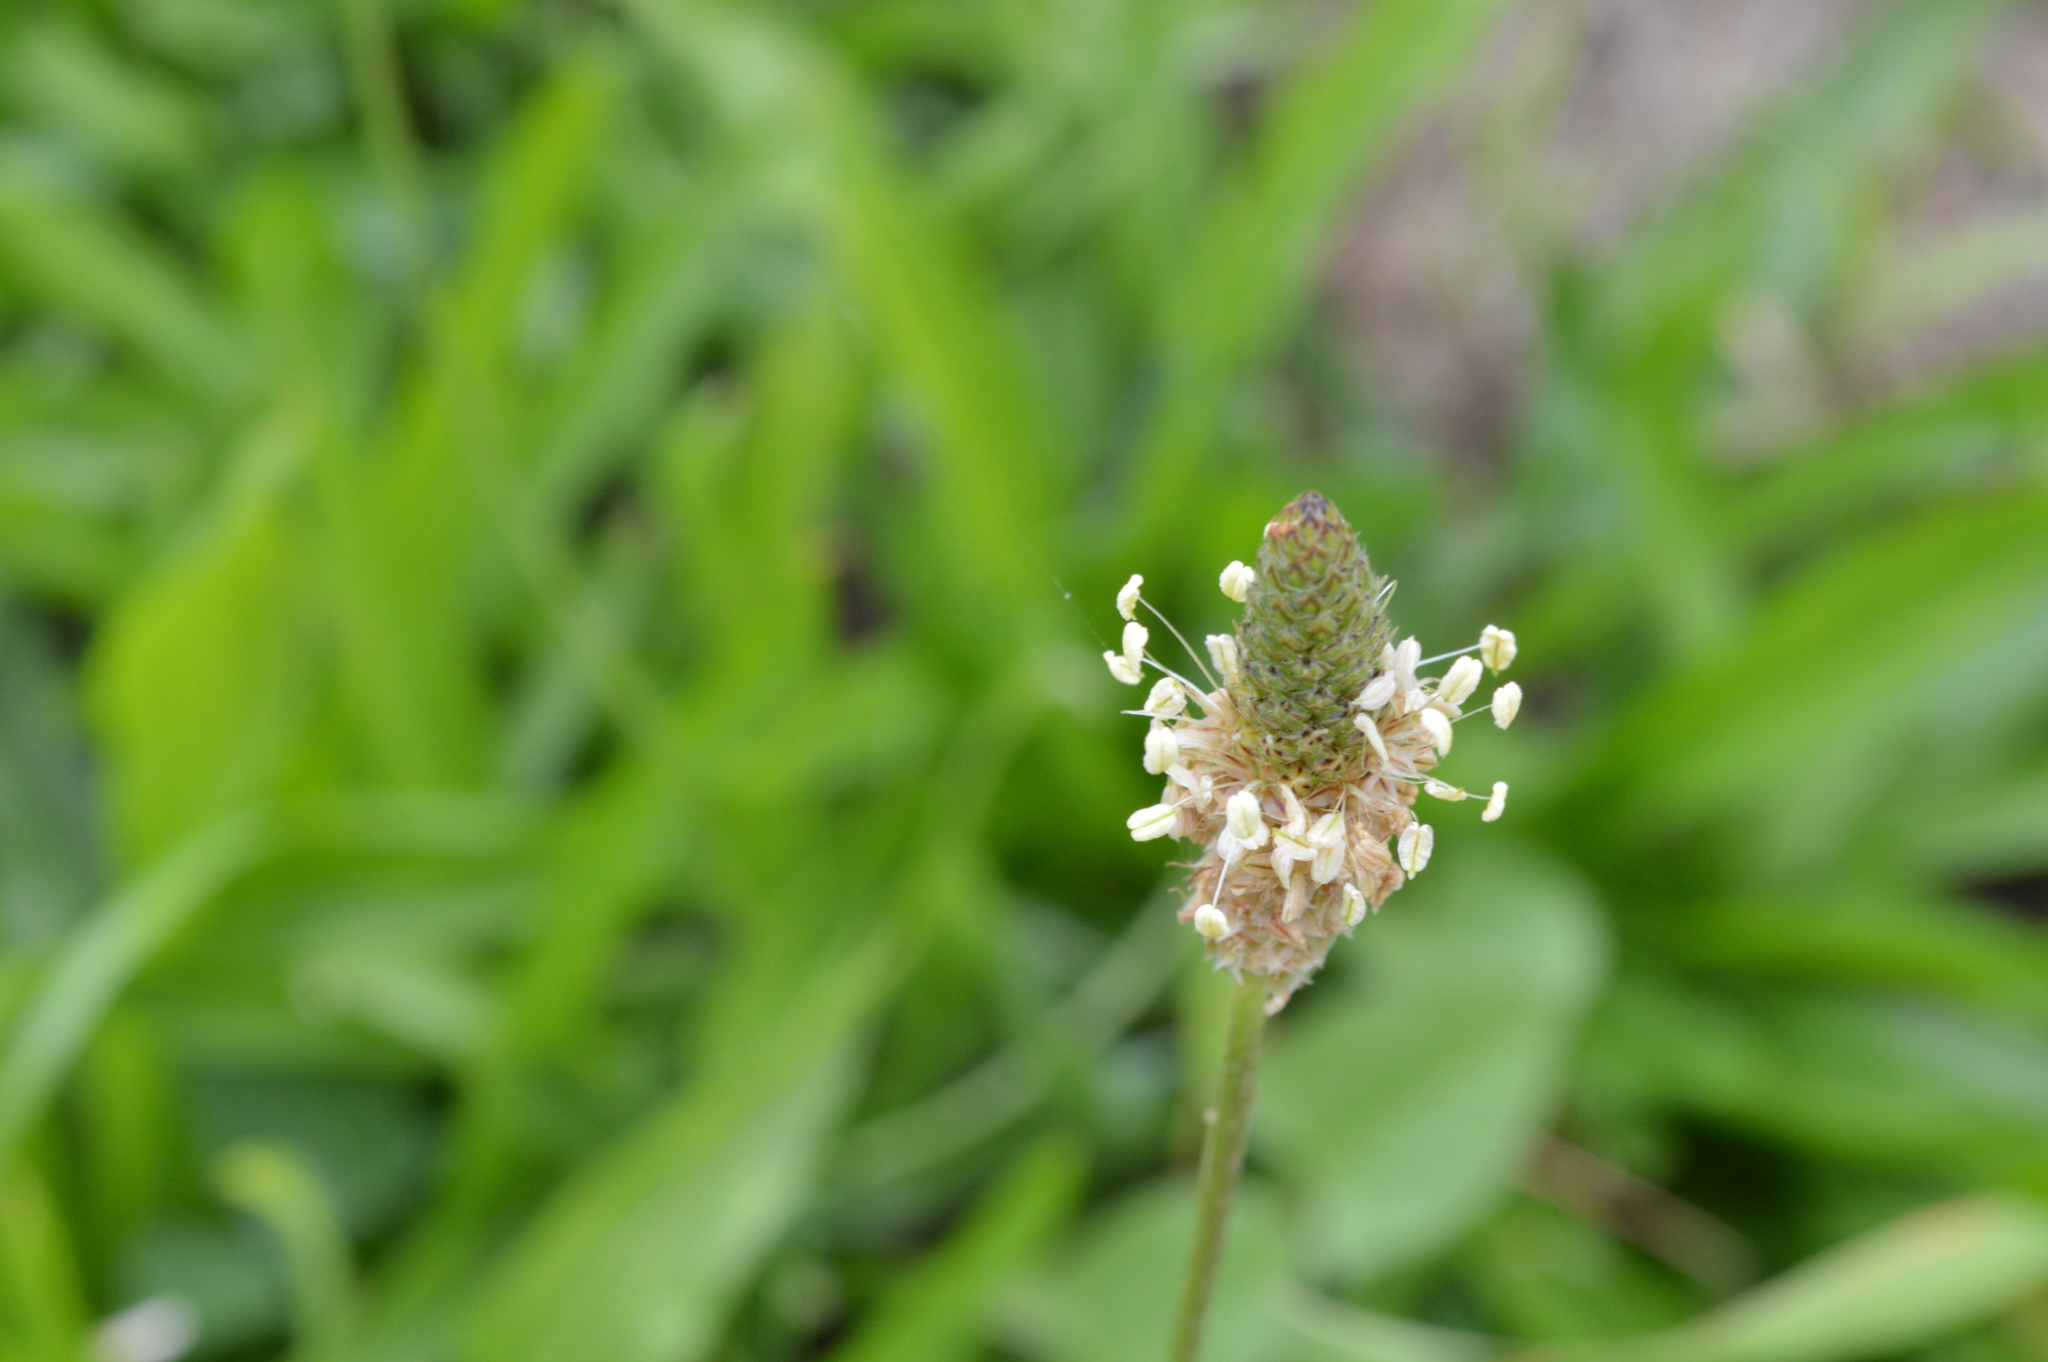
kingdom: Plantae
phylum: Tracheophyta
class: Magnoliopsida
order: Lamiales
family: Plantaginaceae
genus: Plantago
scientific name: Plantago lanceolata
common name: Ribwort plantain
